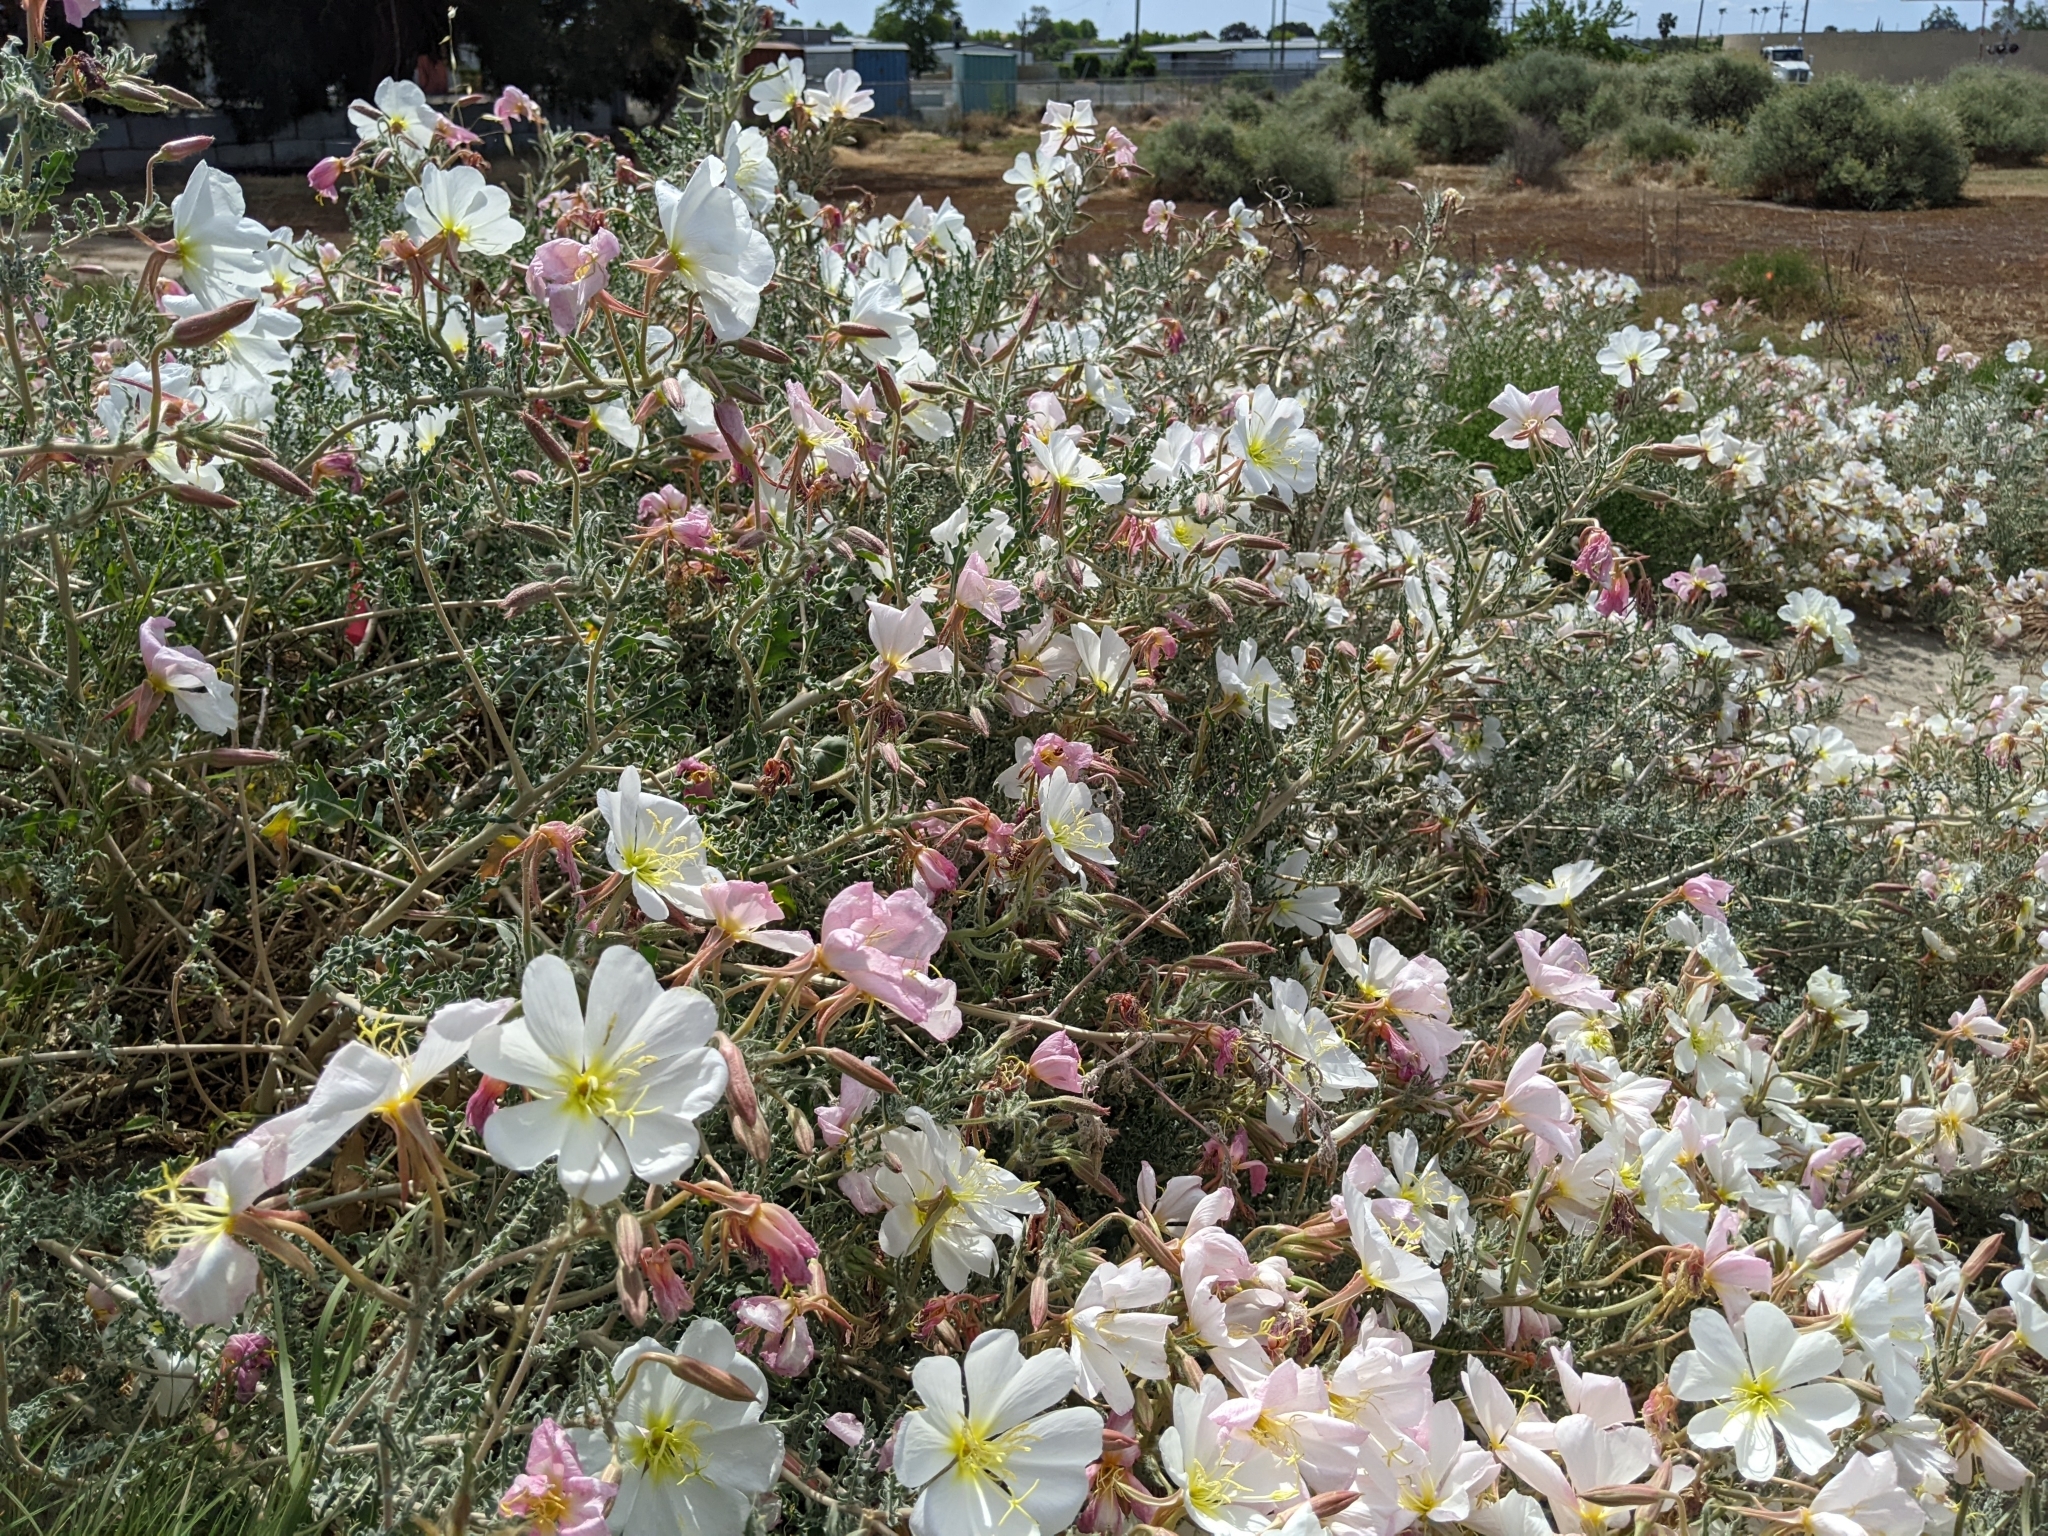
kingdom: Plantae
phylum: Tracheophyta
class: Magnoliopsida
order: Myrtales
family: Onagraceae
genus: Oenothera
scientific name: Oenothera deltoides
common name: Basket evening-primrose
